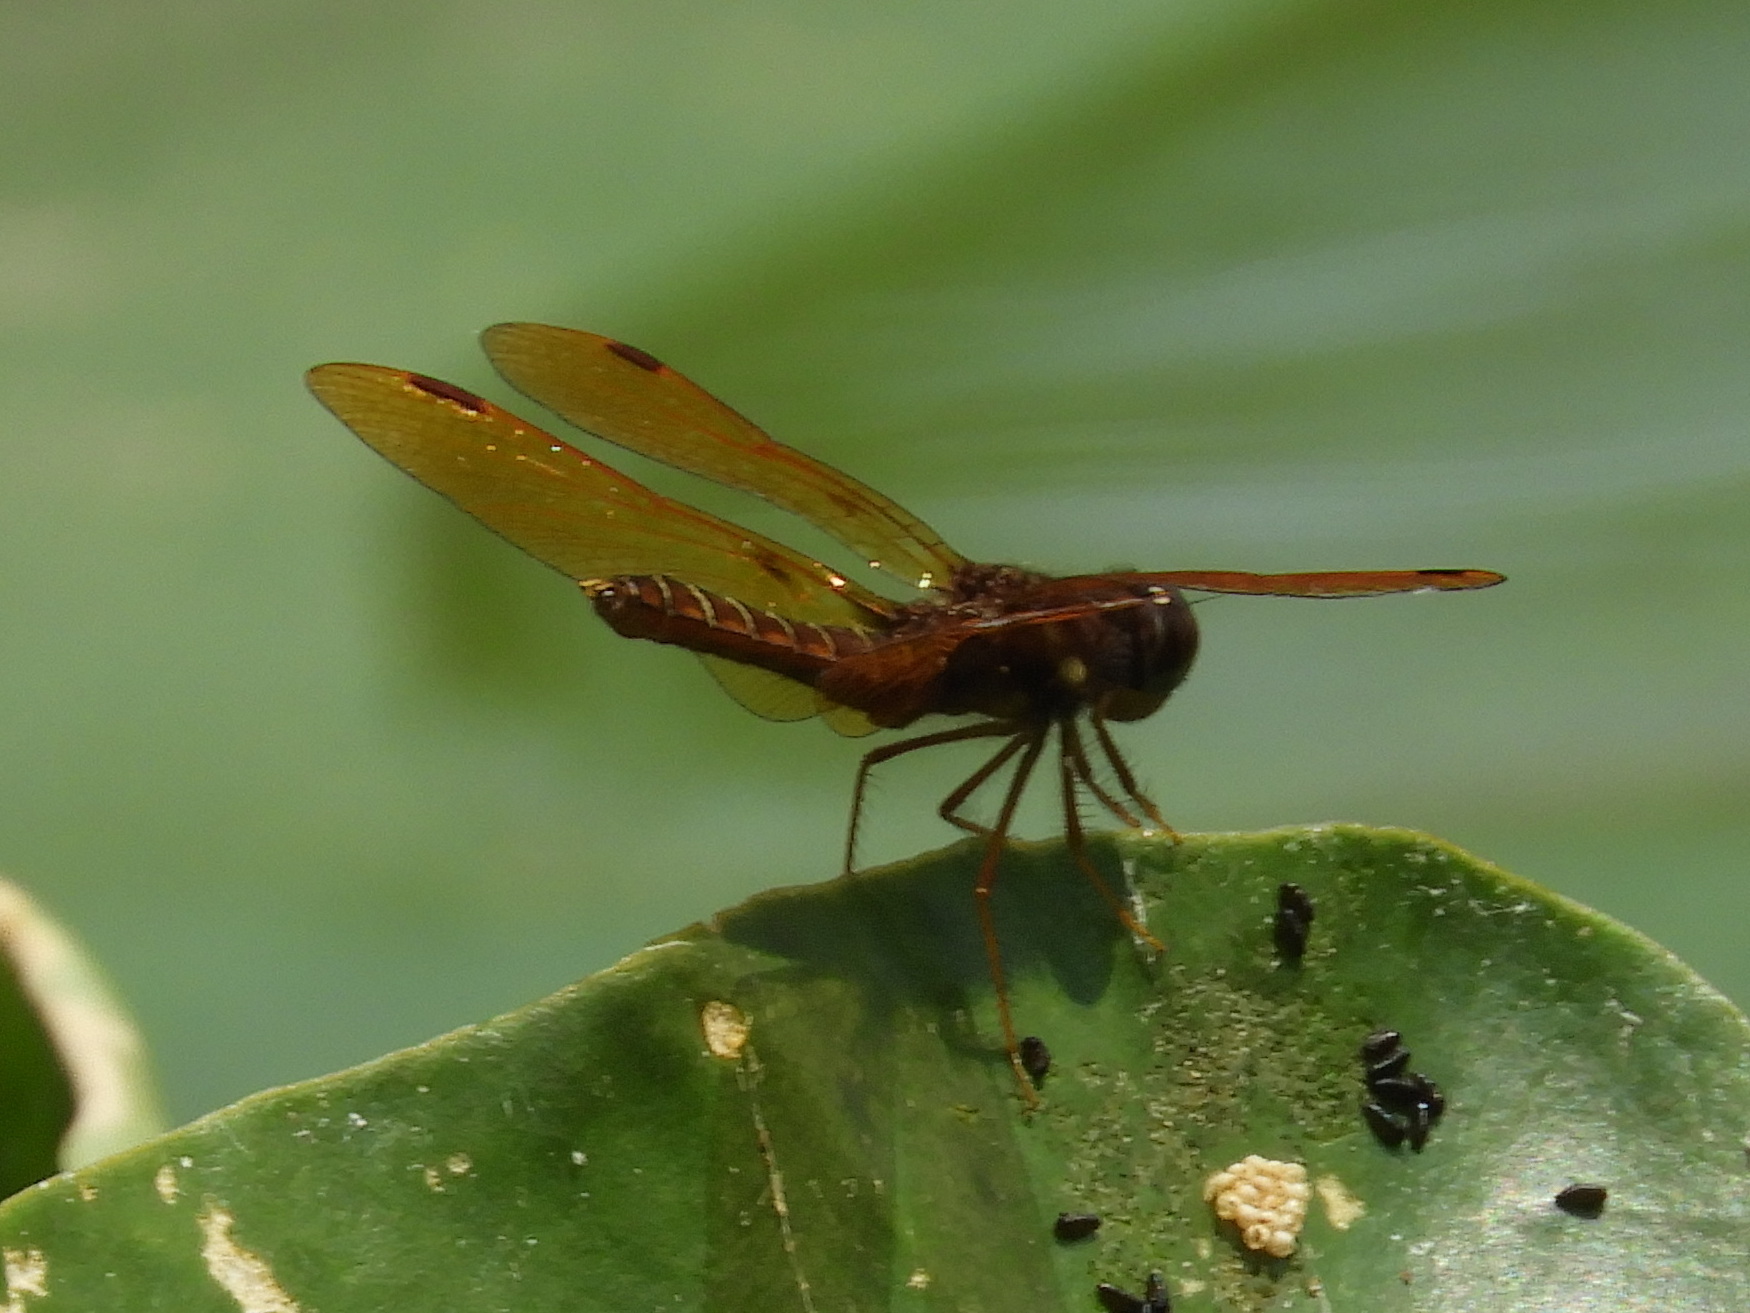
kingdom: Animalia
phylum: Arthropoda
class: Insecta
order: Odonata
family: Libellulidae
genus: Perithemis
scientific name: Perithemis tenera
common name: Eastern amberwing
